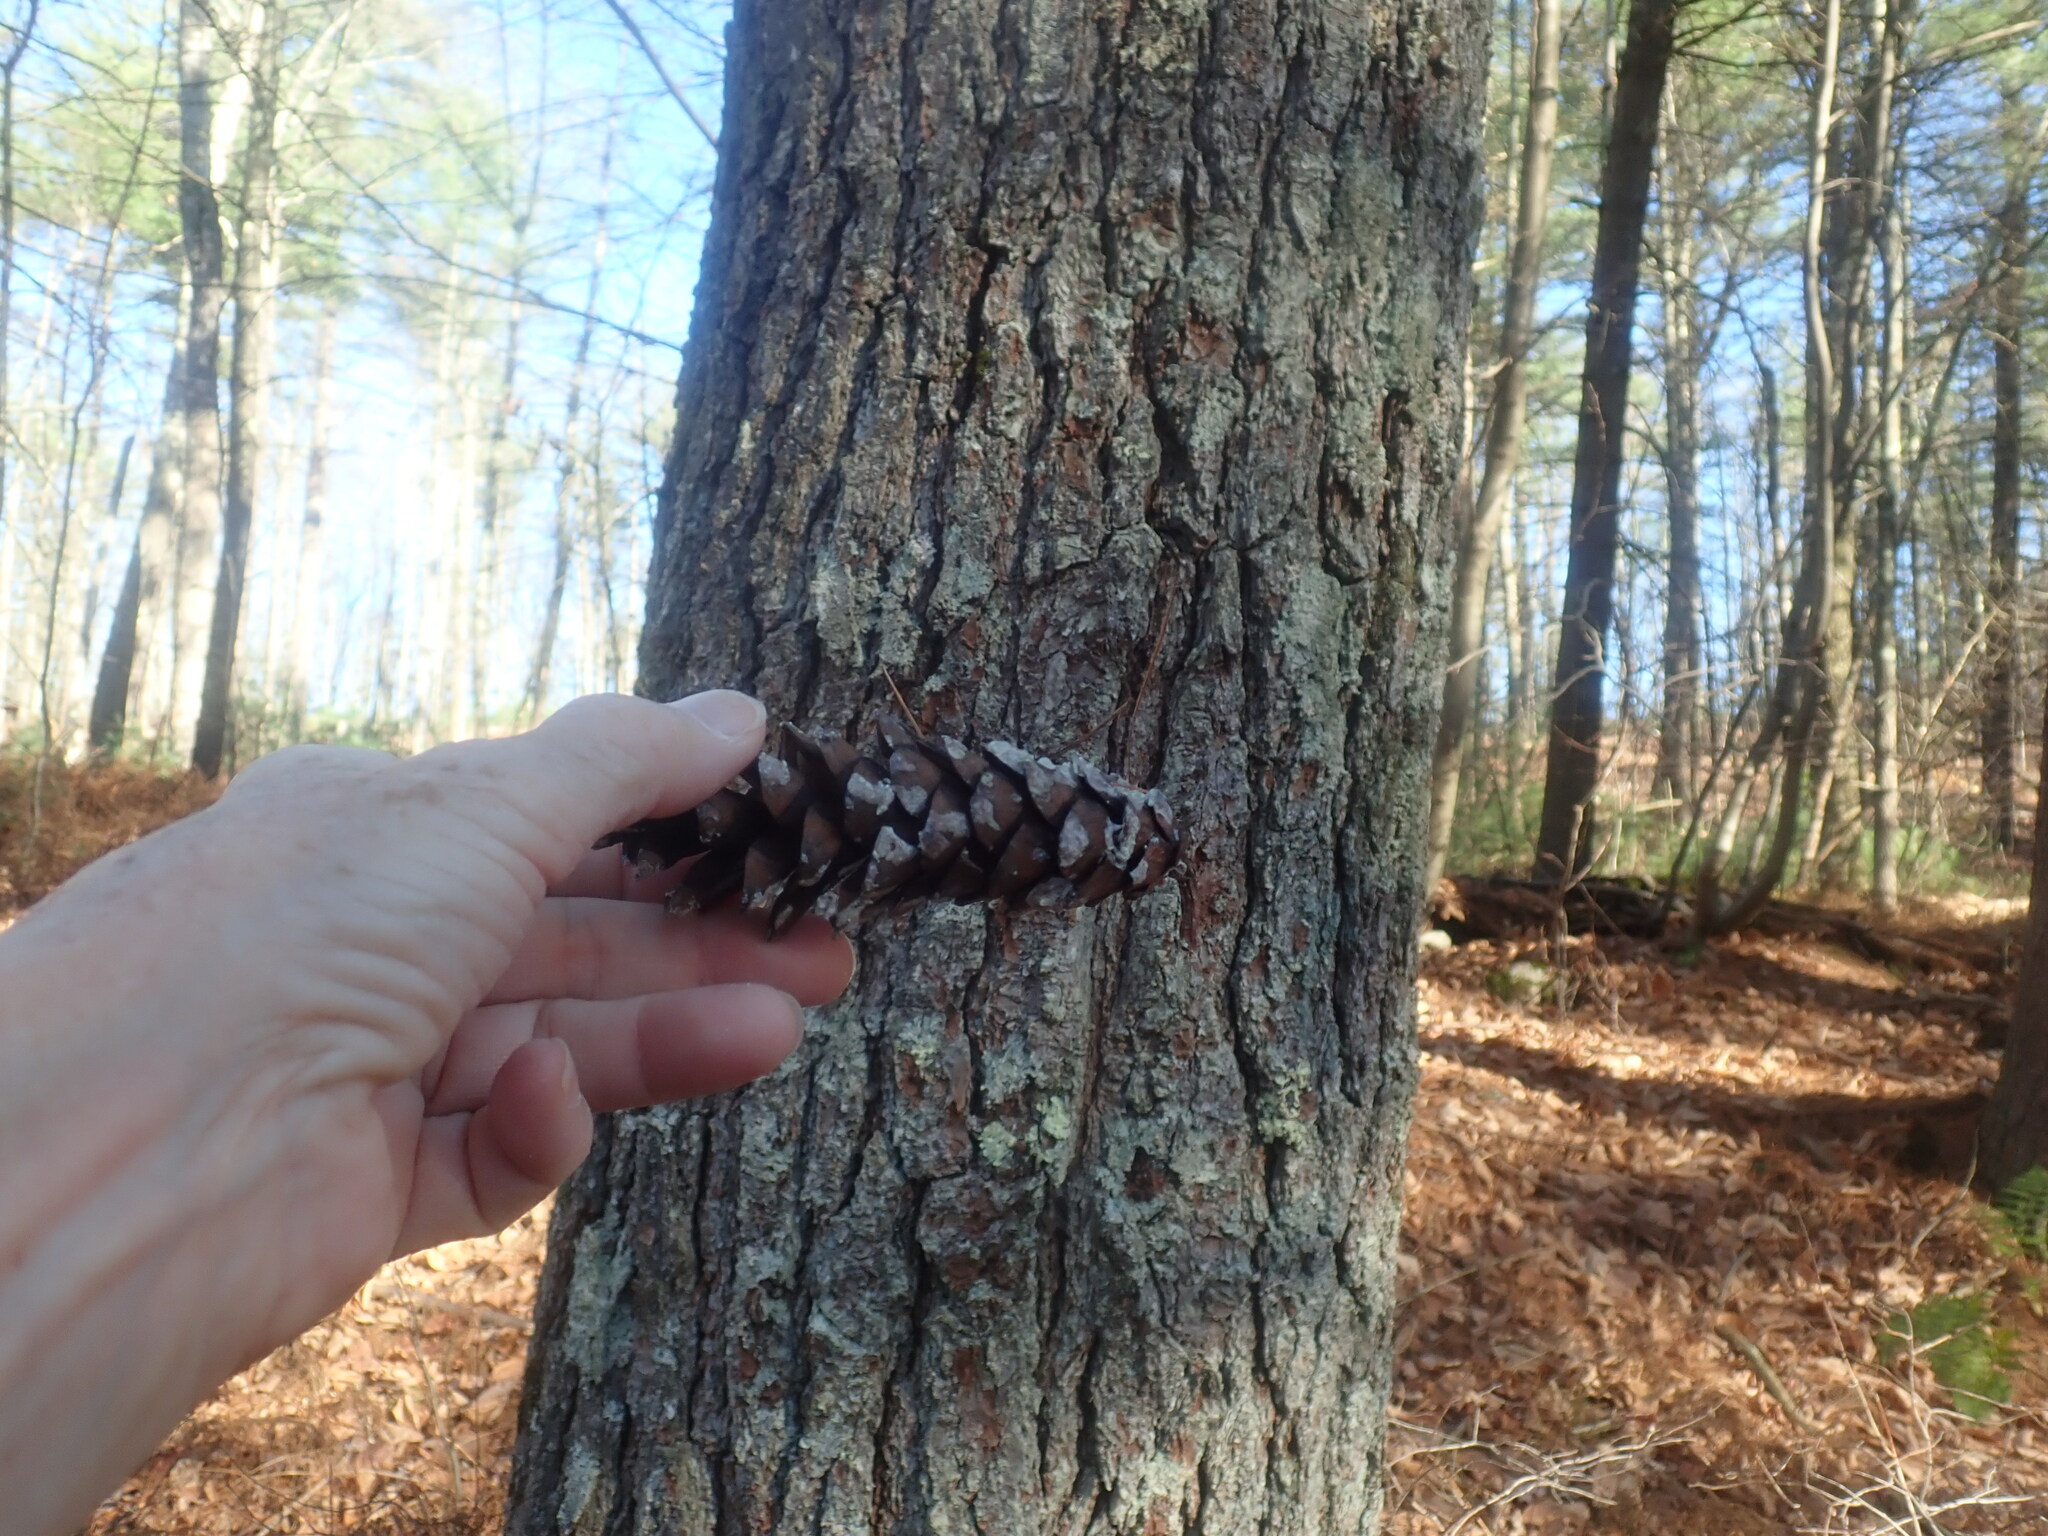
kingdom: Plantae
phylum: Tracheophyta
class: Pinopsida
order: Pinales
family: Pinaceae
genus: Pinus
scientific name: Pinus strobus
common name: Weymouth pine
